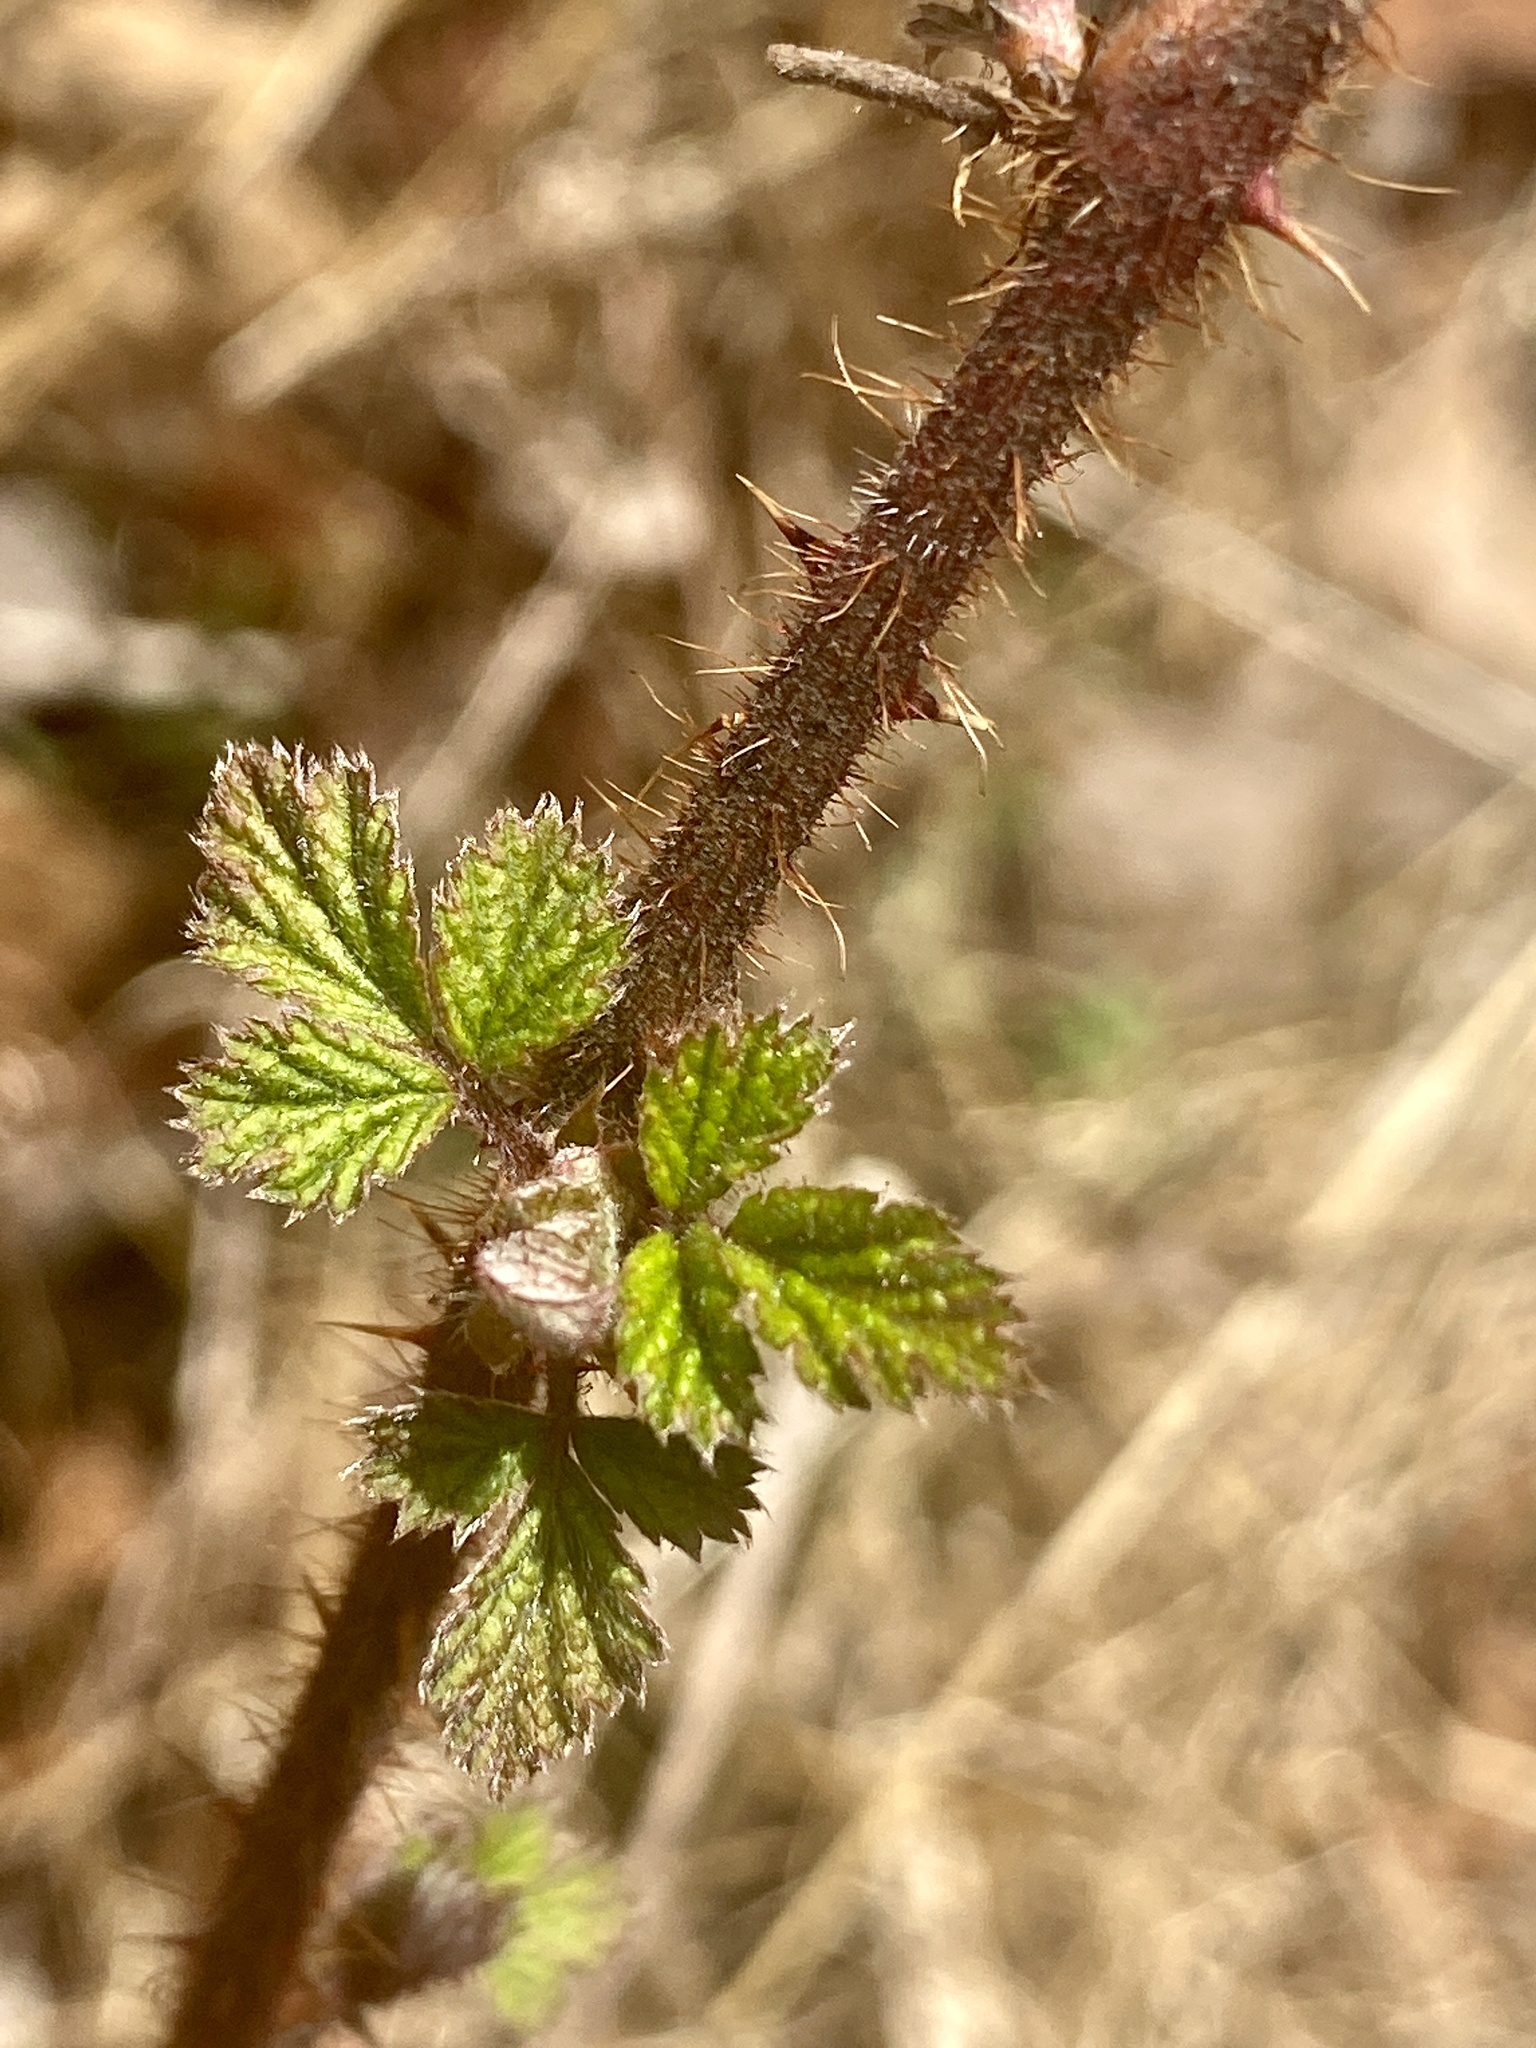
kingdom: Plantae
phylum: Tracheophyta
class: Magnoliopsida
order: Rosales
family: Rosaceae
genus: Rubus
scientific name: Rubus phoenicolasius
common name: Japanese wineberry
